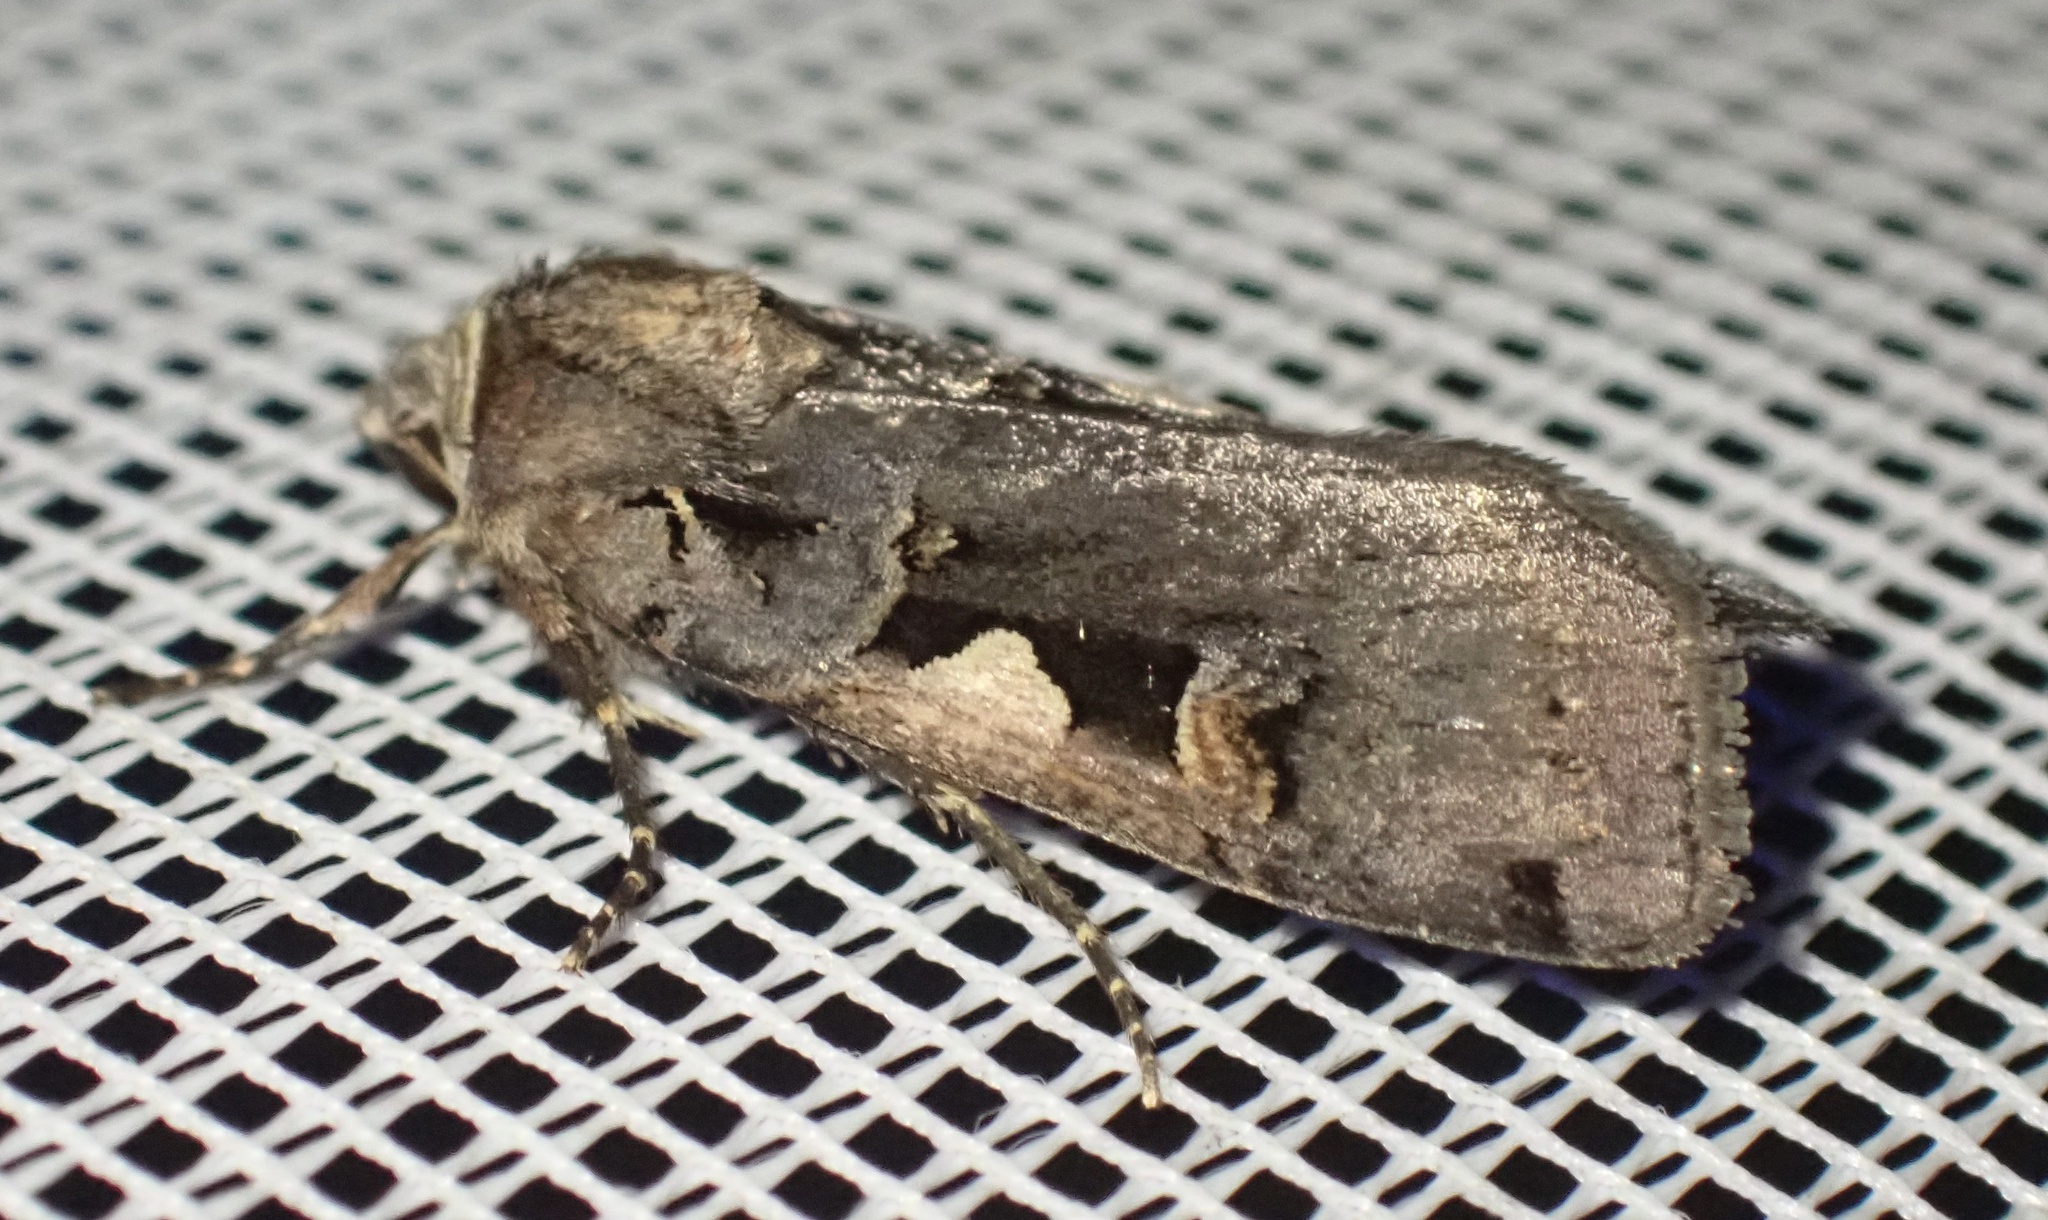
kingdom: Animalia
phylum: Arthropoda
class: Insecta
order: Lepidoptera
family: Noctuidae
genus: Xestia
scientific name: Xestia c-nigrum
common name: Setaceous hebrew character
